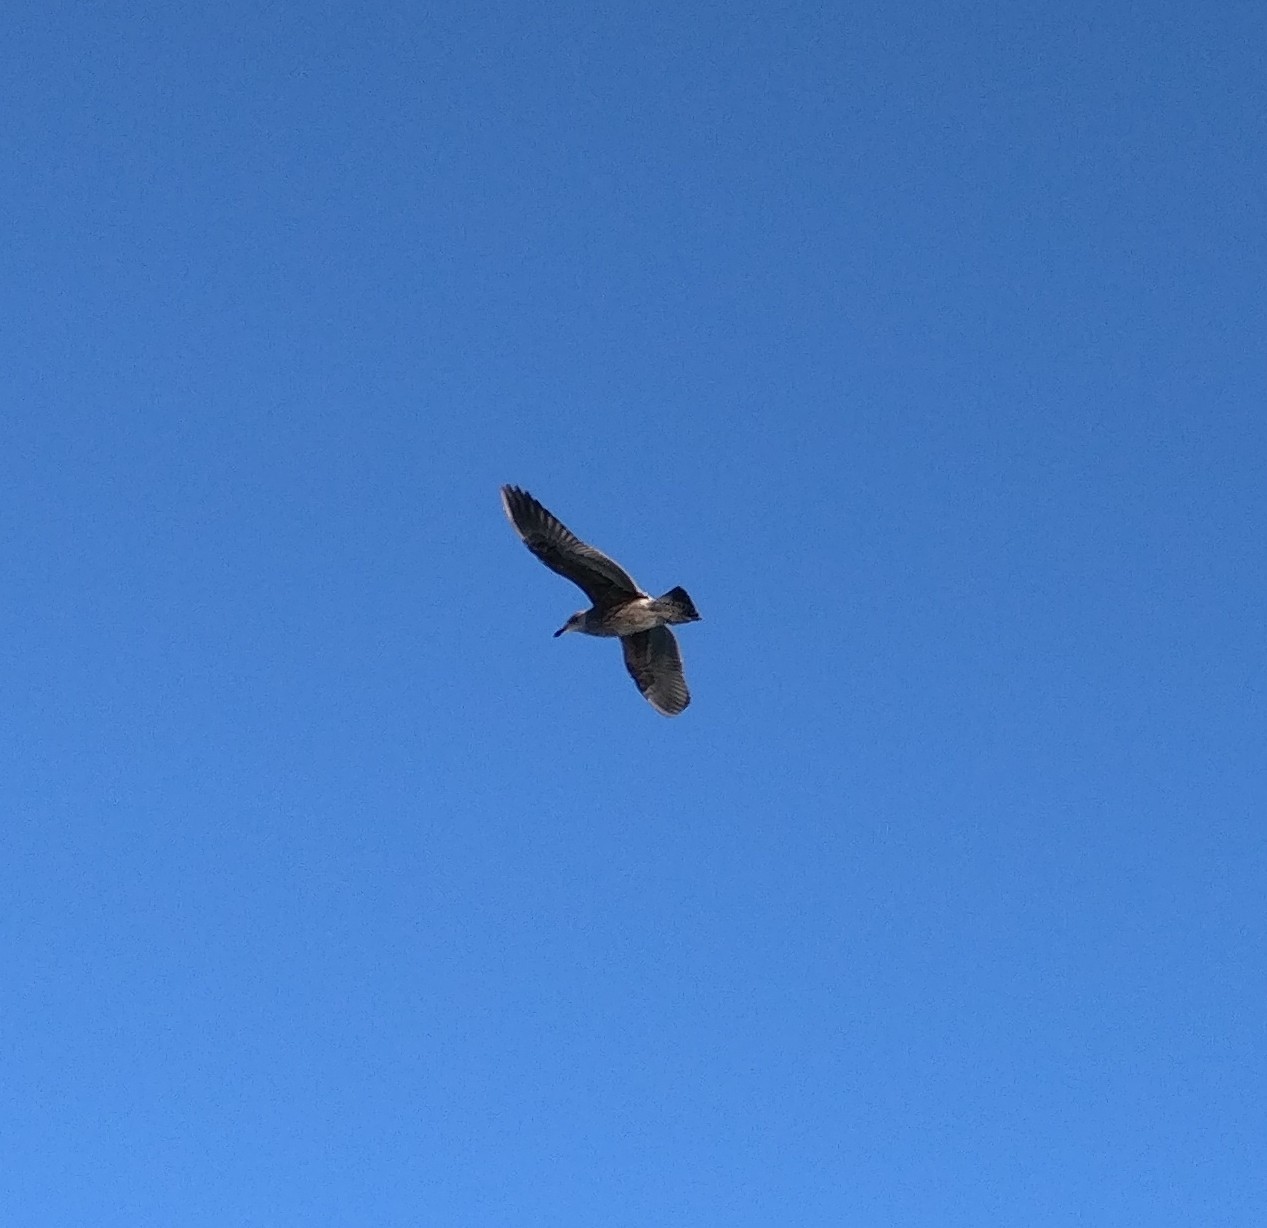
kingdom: Animalia
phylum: Chordata
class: Aves
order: Charadriiformes
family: Laridae
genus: Larus
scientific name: Larus dominicanus
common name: Kelp gull
